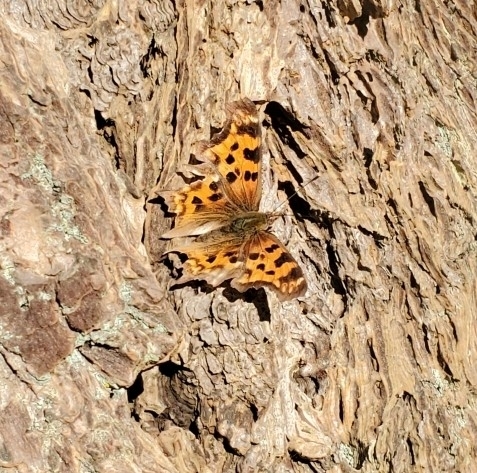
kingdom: Animalia
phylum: Arthropoda
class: Insecta
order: Lepidoptera
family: Nymphalidae
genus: Polygonia
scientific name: Polygonia satyrus
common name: Satyr angle wing
